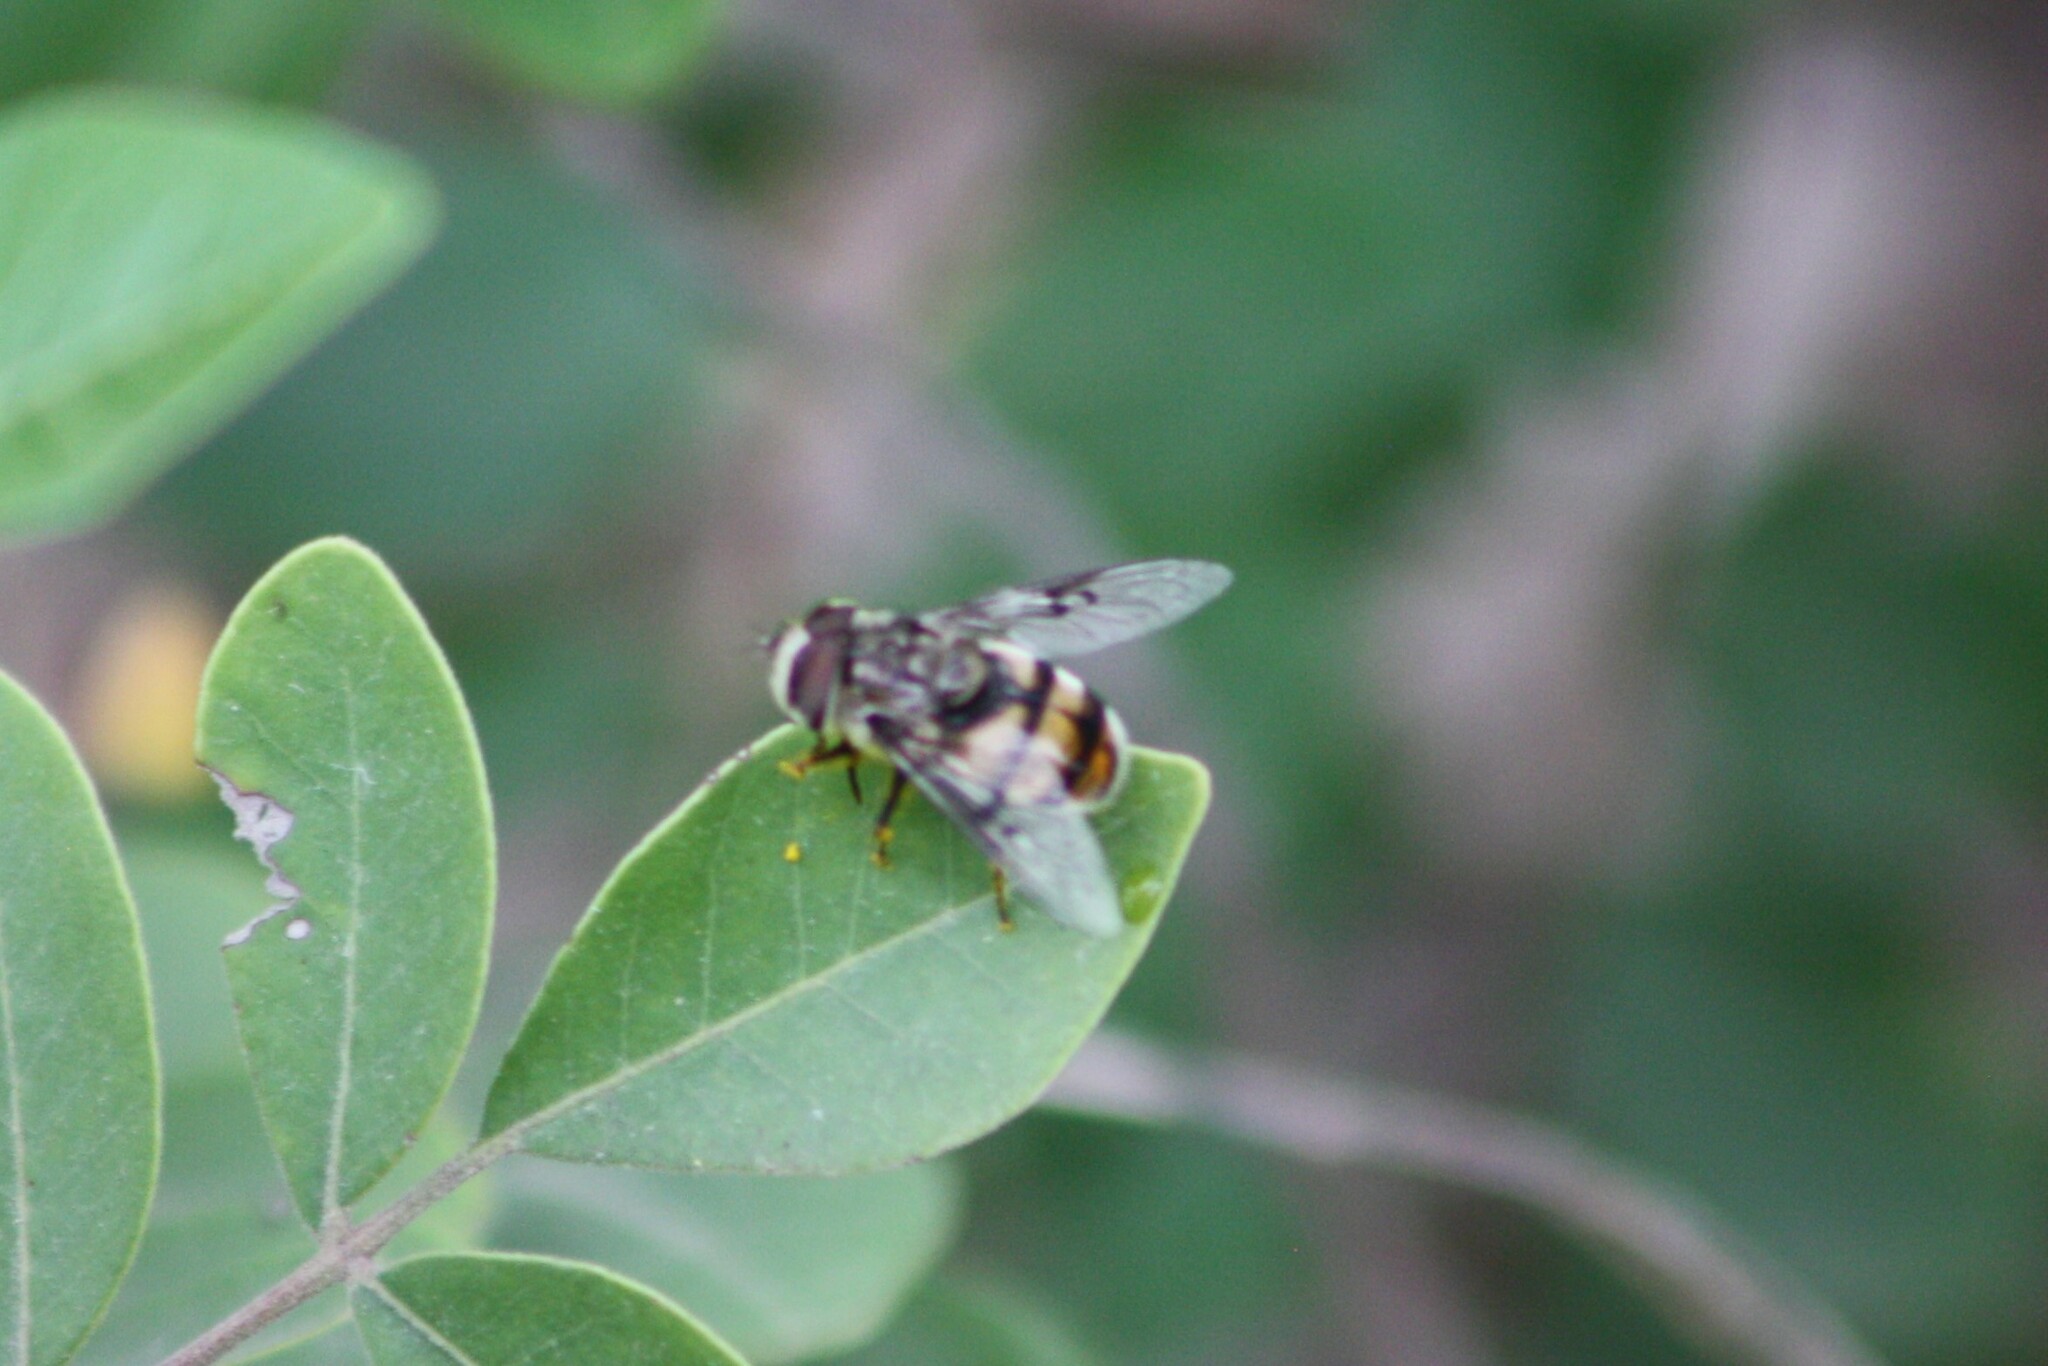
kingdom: Animalia
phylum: Arthropoda
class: Insecta
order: Diptera
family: Syrphidae
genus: Copestylum
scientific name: Copestylum avidum
